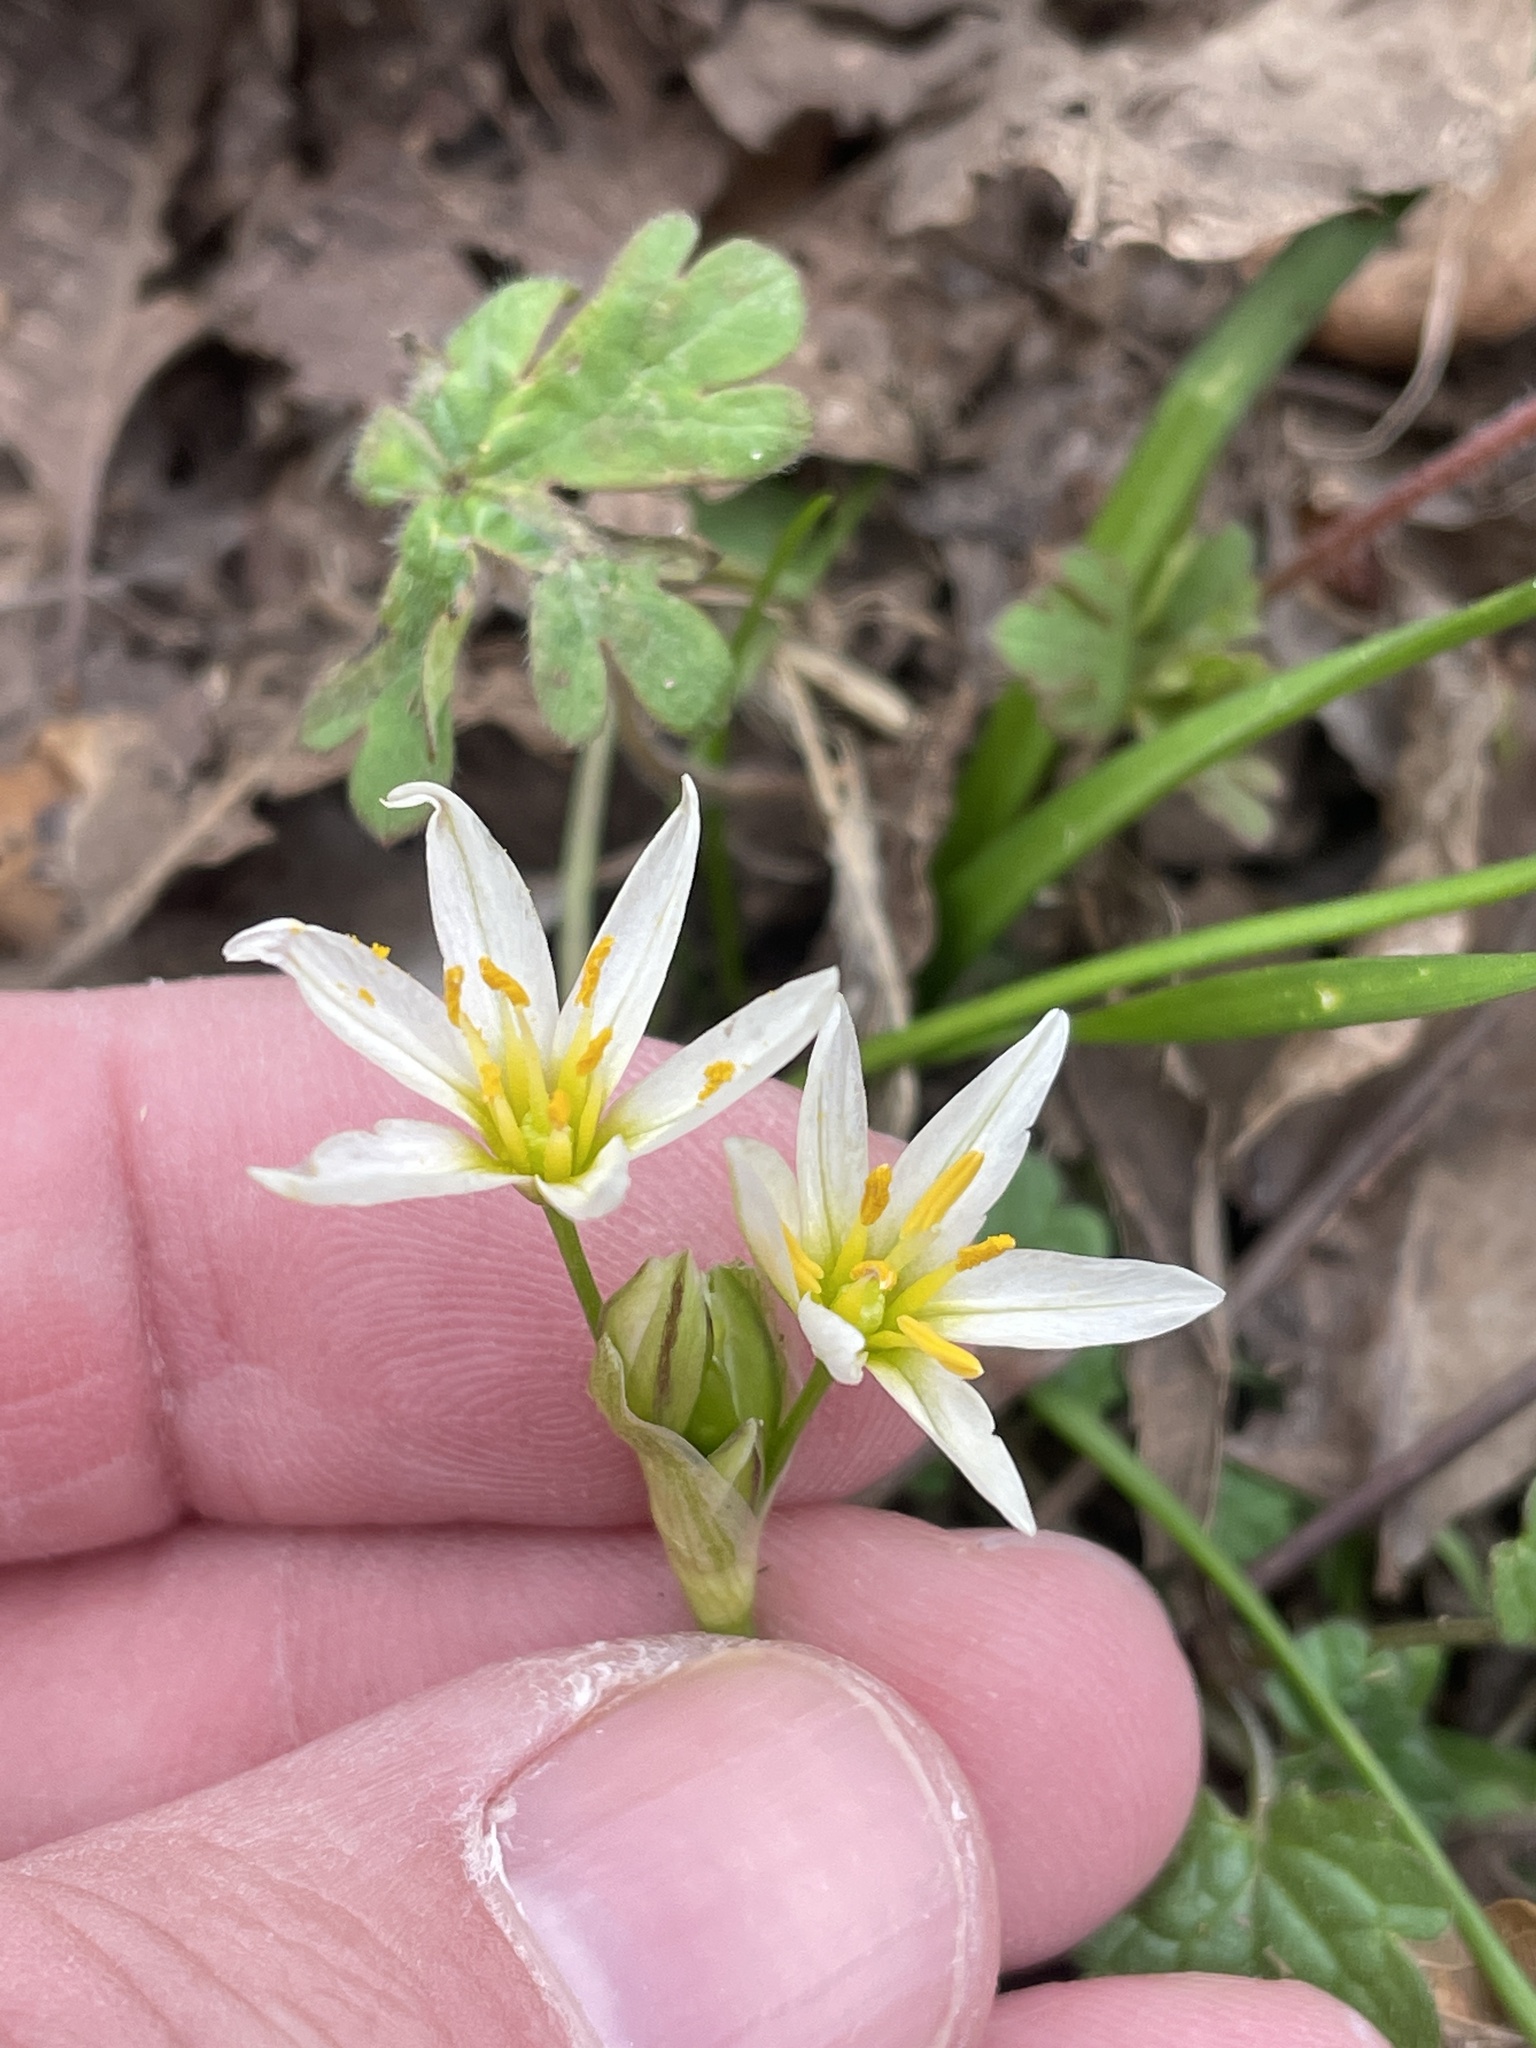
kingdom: Plantae
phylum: Tracheophyta
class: Liliopsida
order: Asparagales
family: Amaryllidaceae
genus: Nothoscordum
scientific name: Nothoscordum bivalve
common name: Crow-poison
